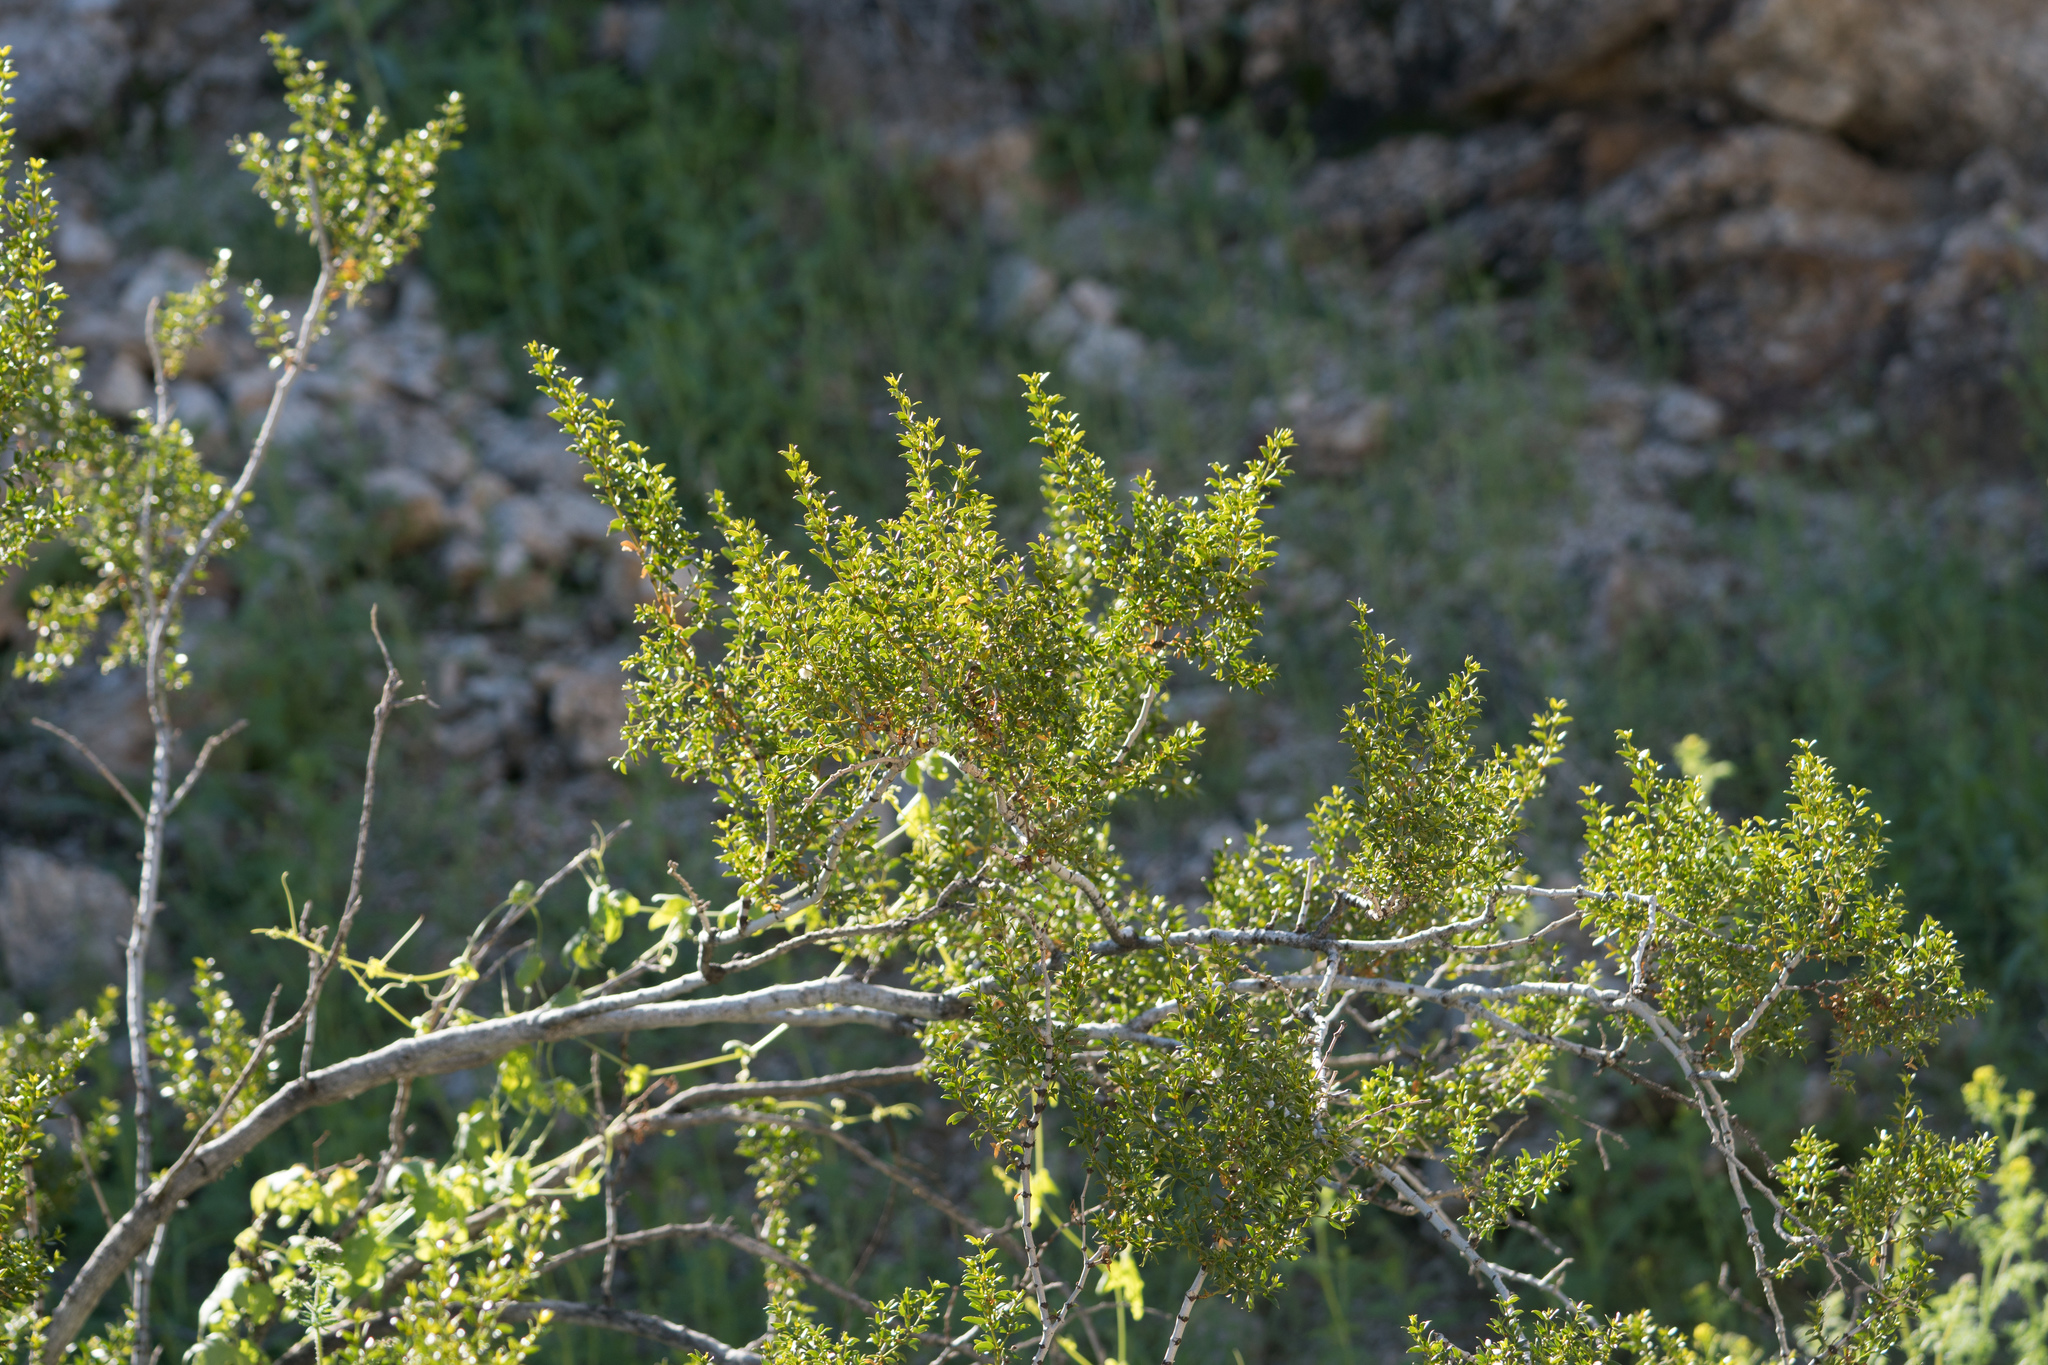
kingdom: Plantae
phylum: Tracheophyta
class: Magnoliopsida
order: Zygophyllales
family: Zygophyllaceae
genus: Larrea
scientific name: Larrea tridentata
